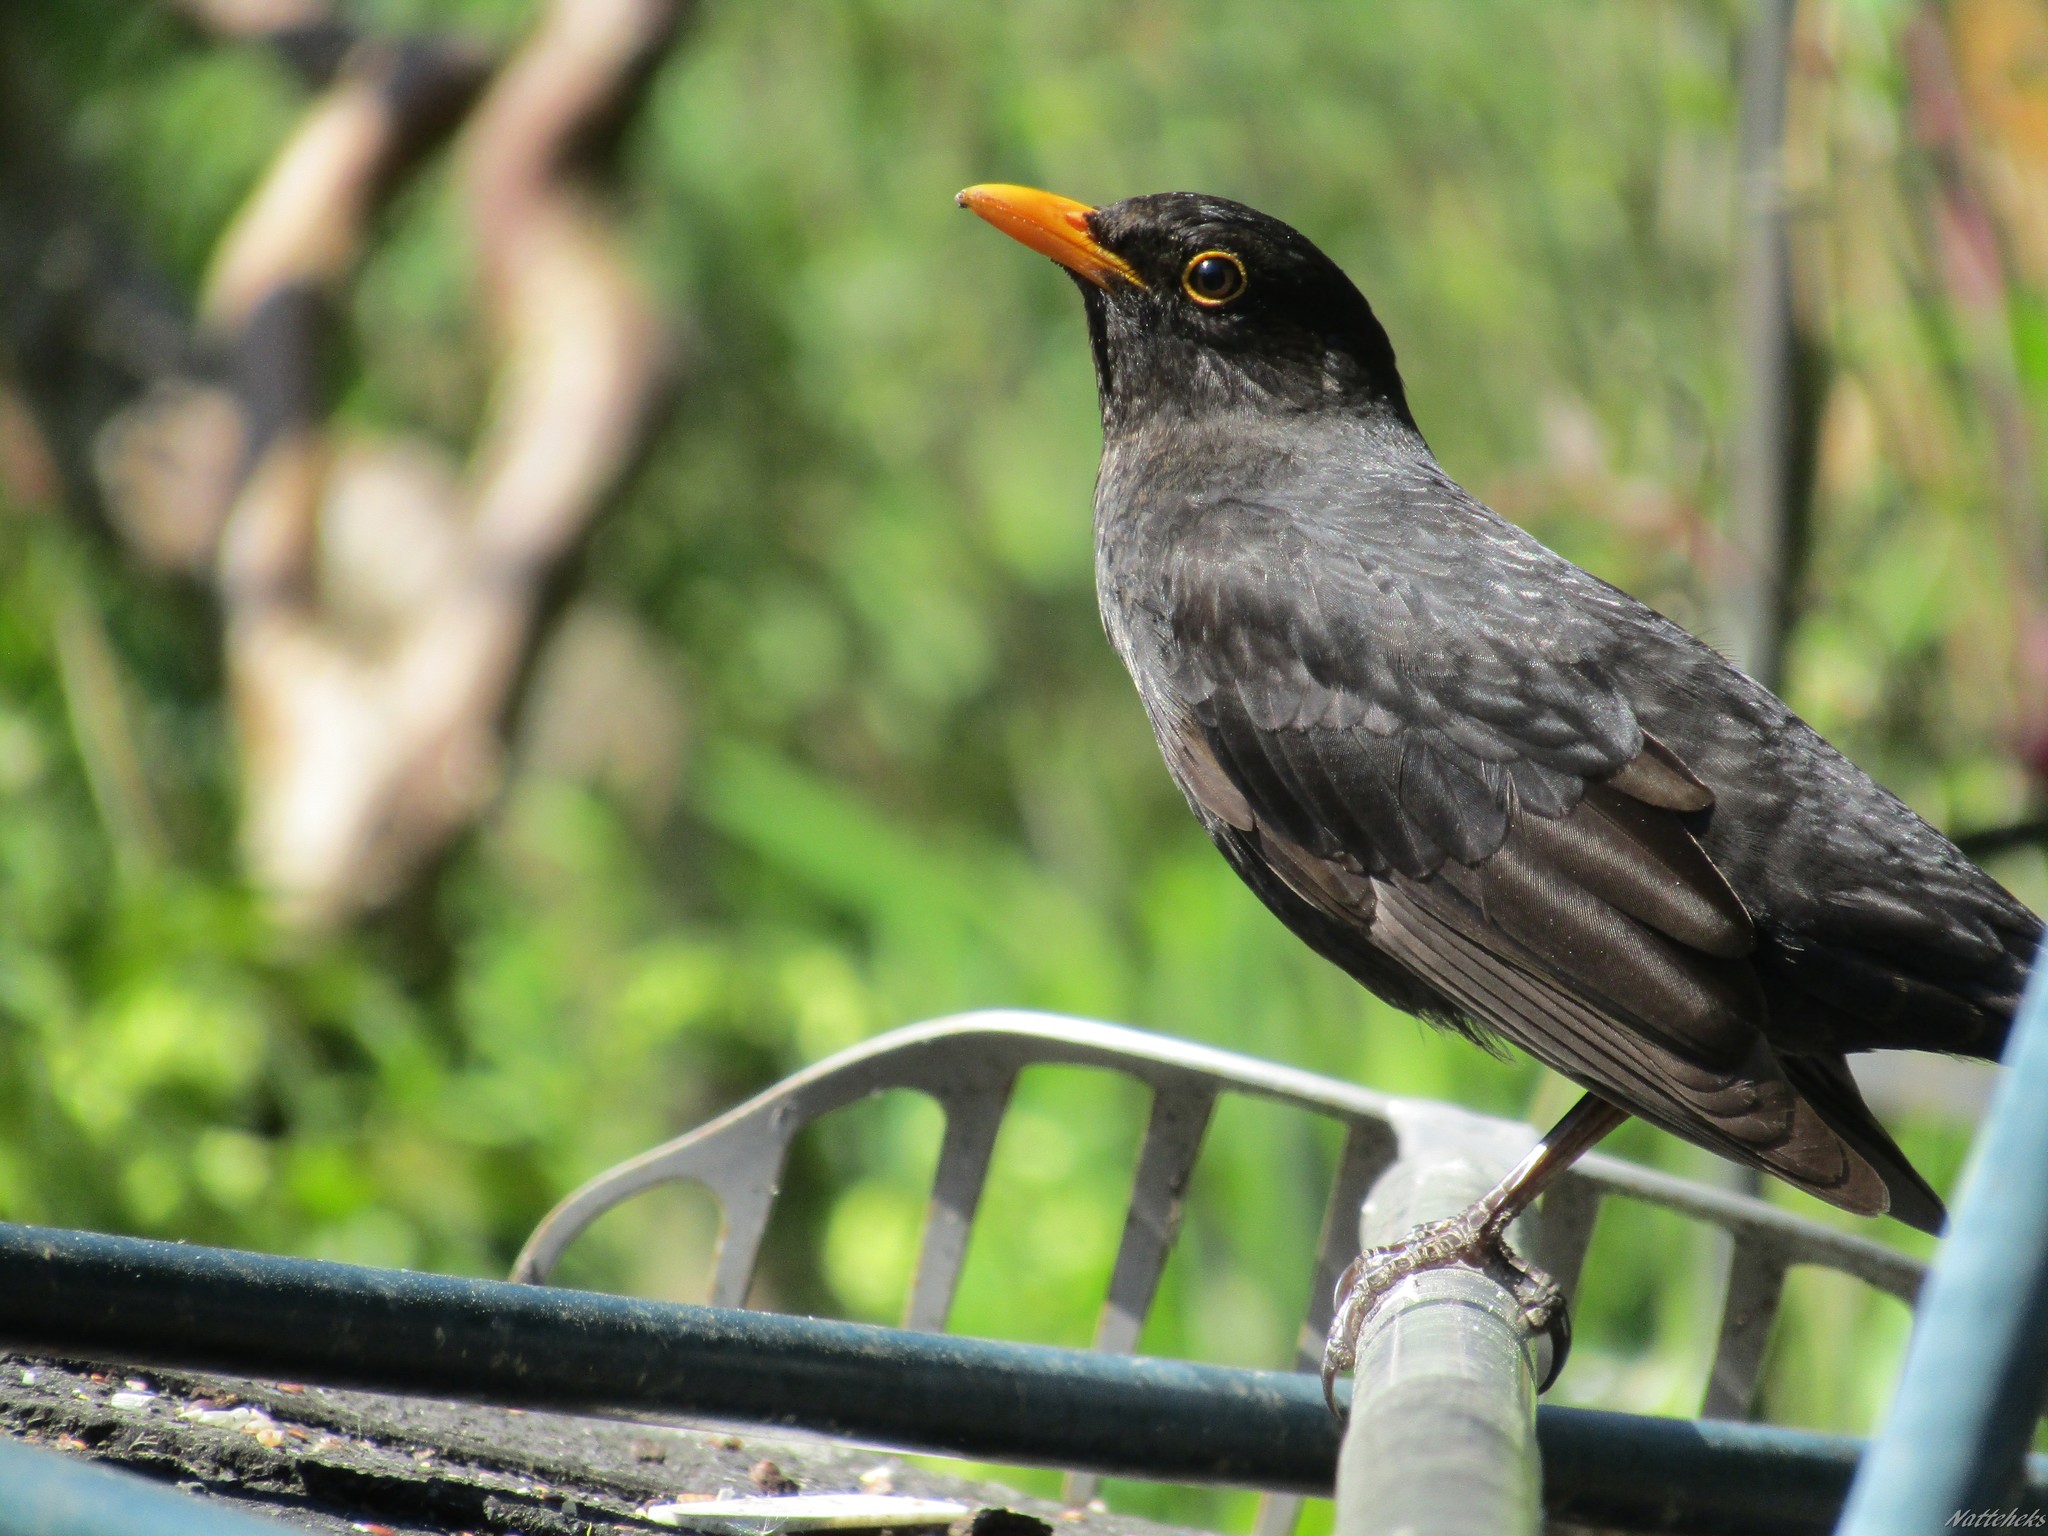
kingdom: Animalia
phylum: Chordata
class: Aves
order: Passeriformes
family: Turdidae
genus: Turdus
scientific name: Turdus merula
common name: Common blackbird
